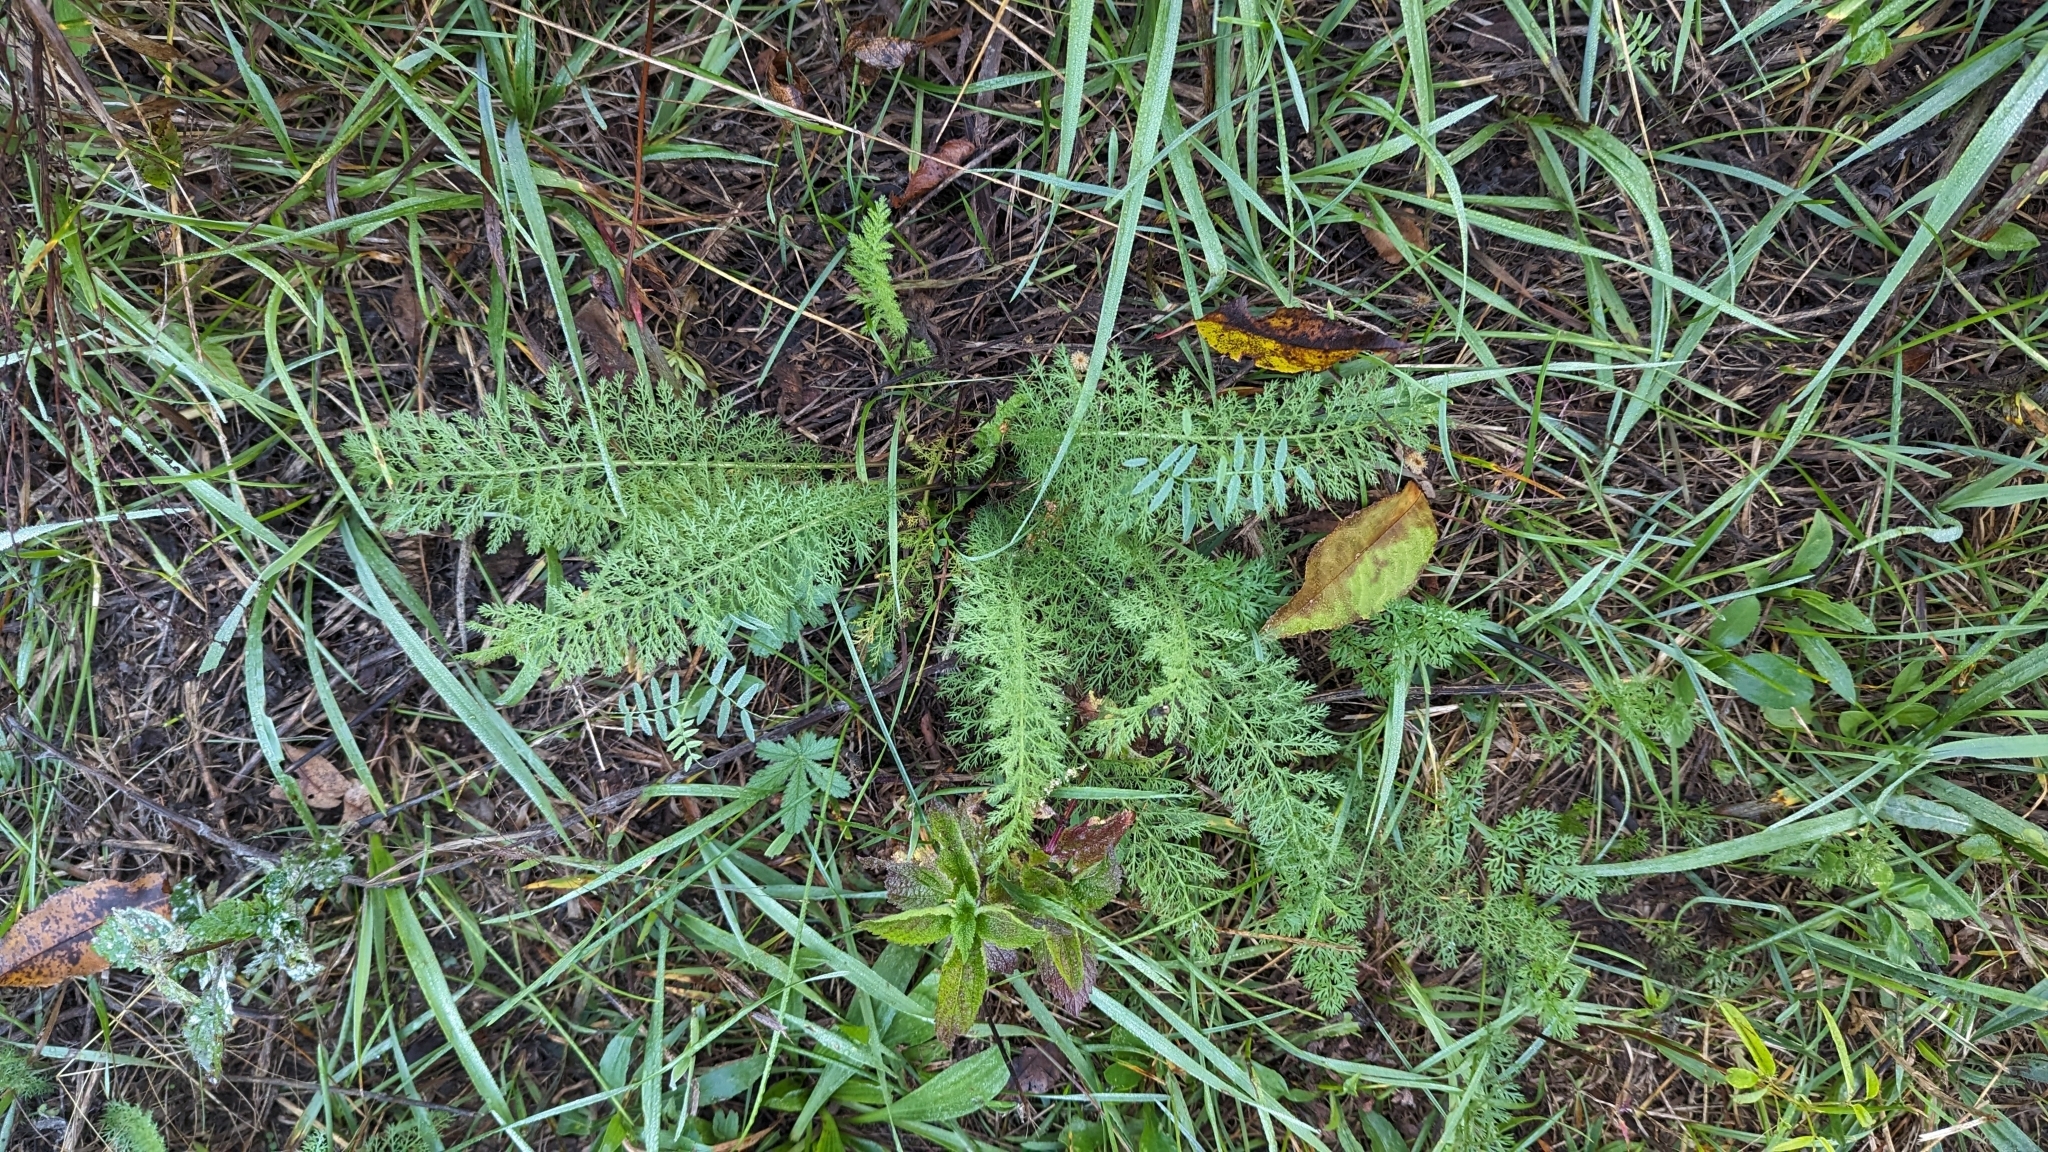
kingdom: Plantae
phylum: Tracheophyta
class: Magnoliopsida
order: Asterales
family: Asteraceae
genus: Achillea
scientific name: Achillea millefolium
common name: Yarrow
